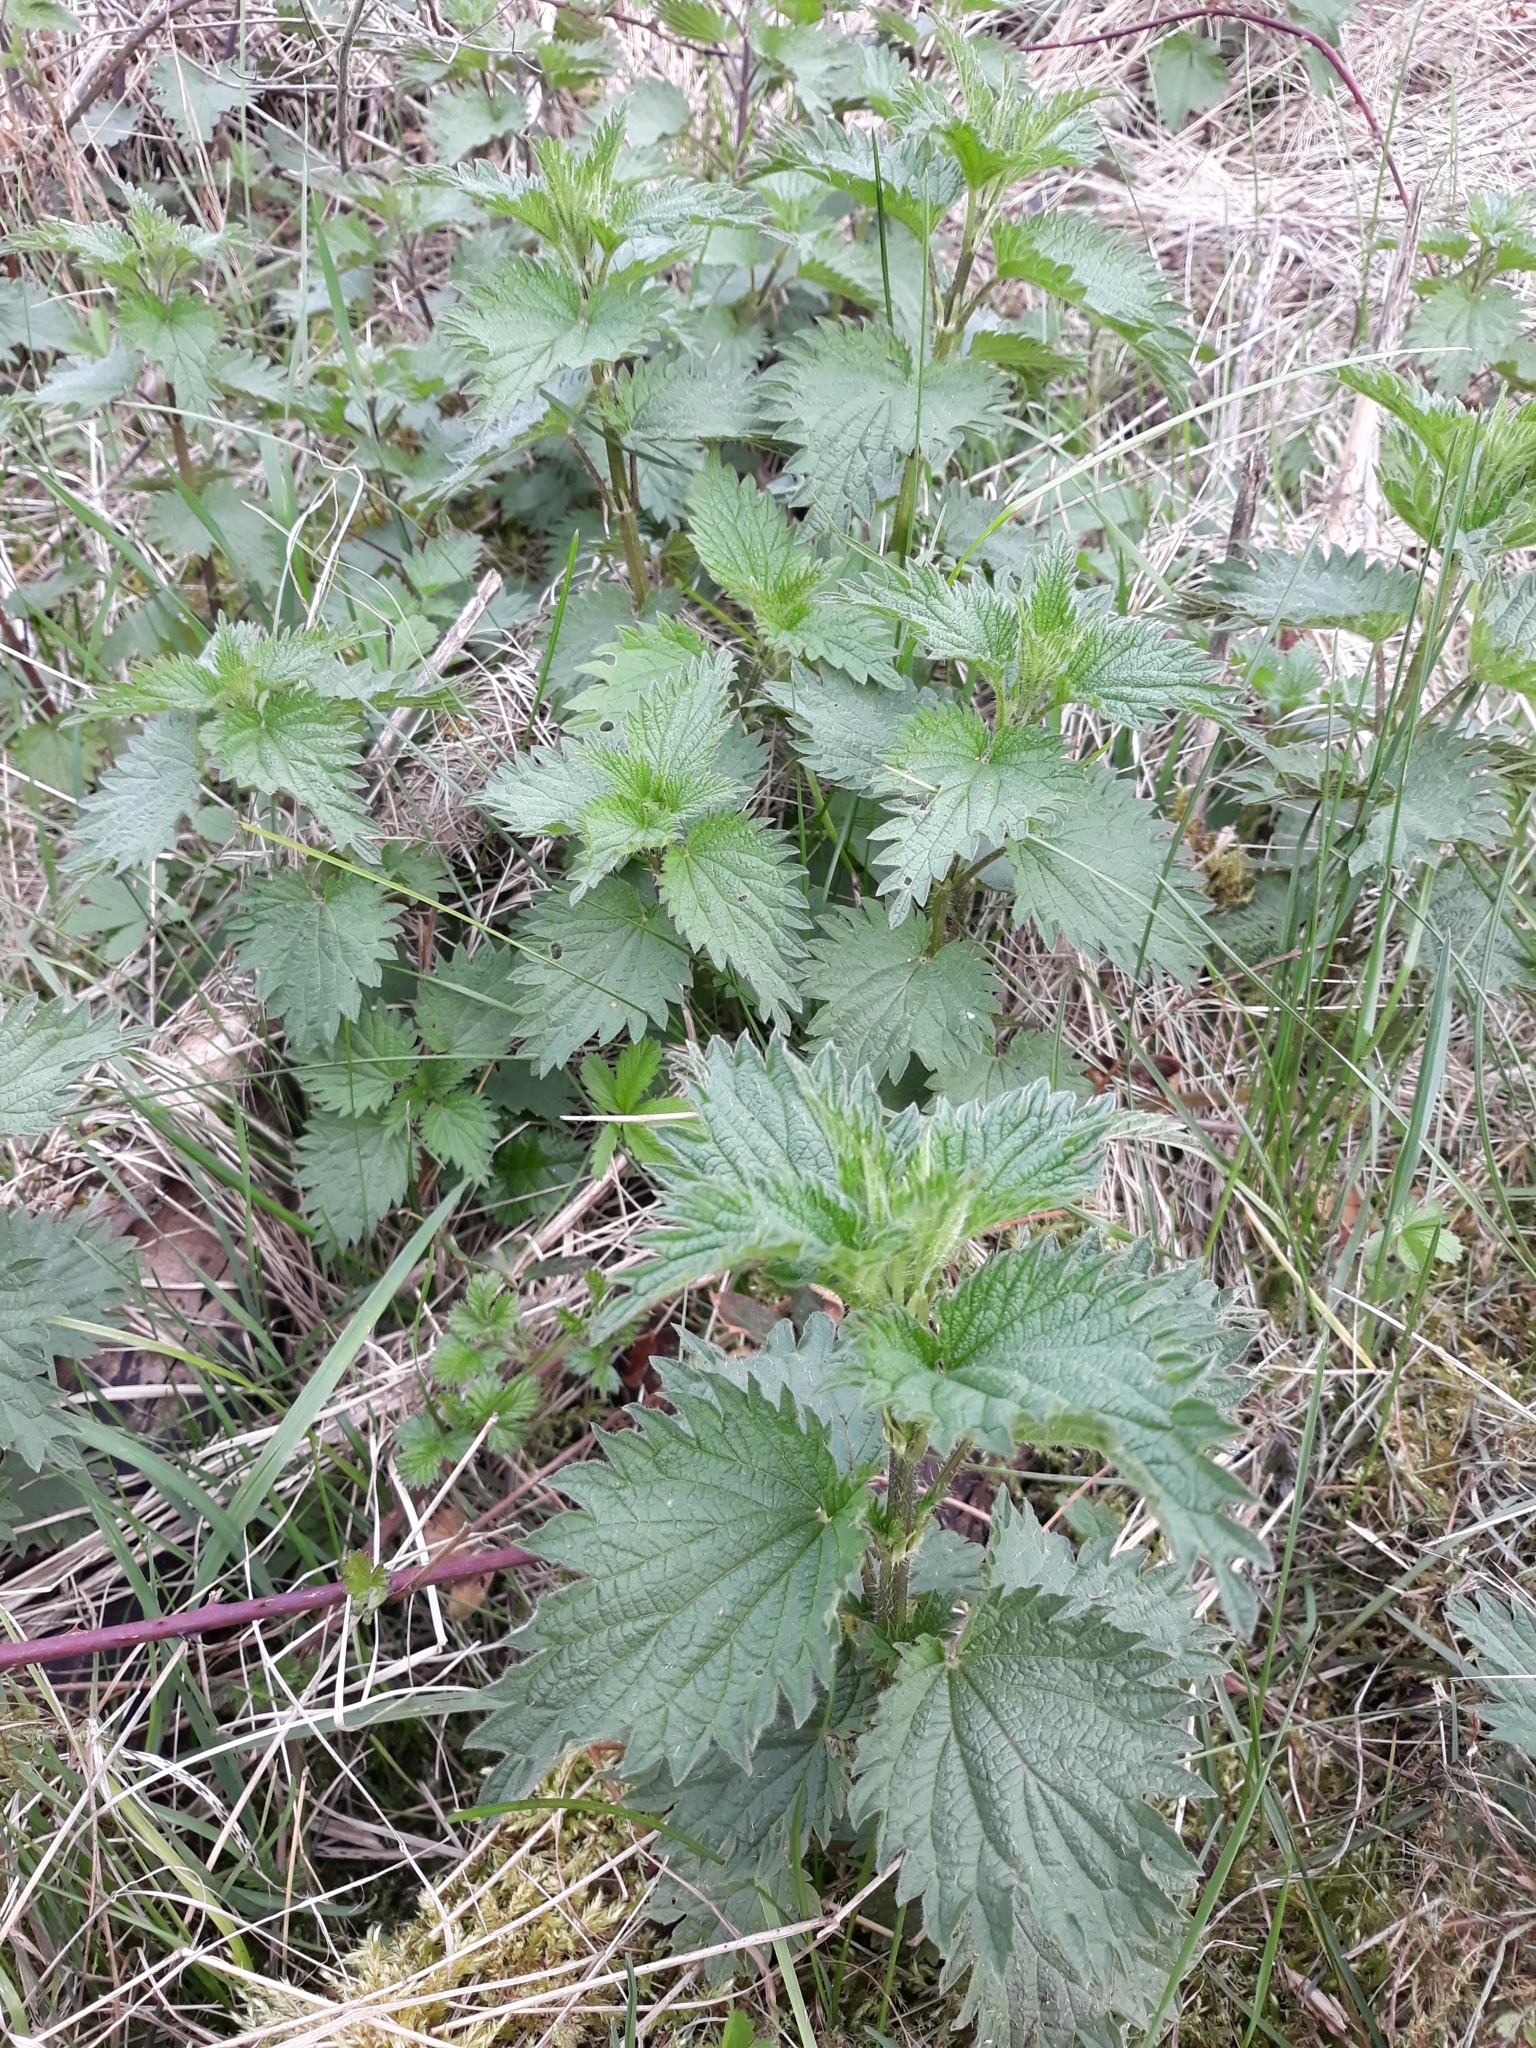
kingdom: Plantae
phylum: Tracheophyta
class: Magnoliopsida
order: Rosales
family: Urticaceae
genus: Urtica
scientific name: Urtica dioica
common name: Common nettle
